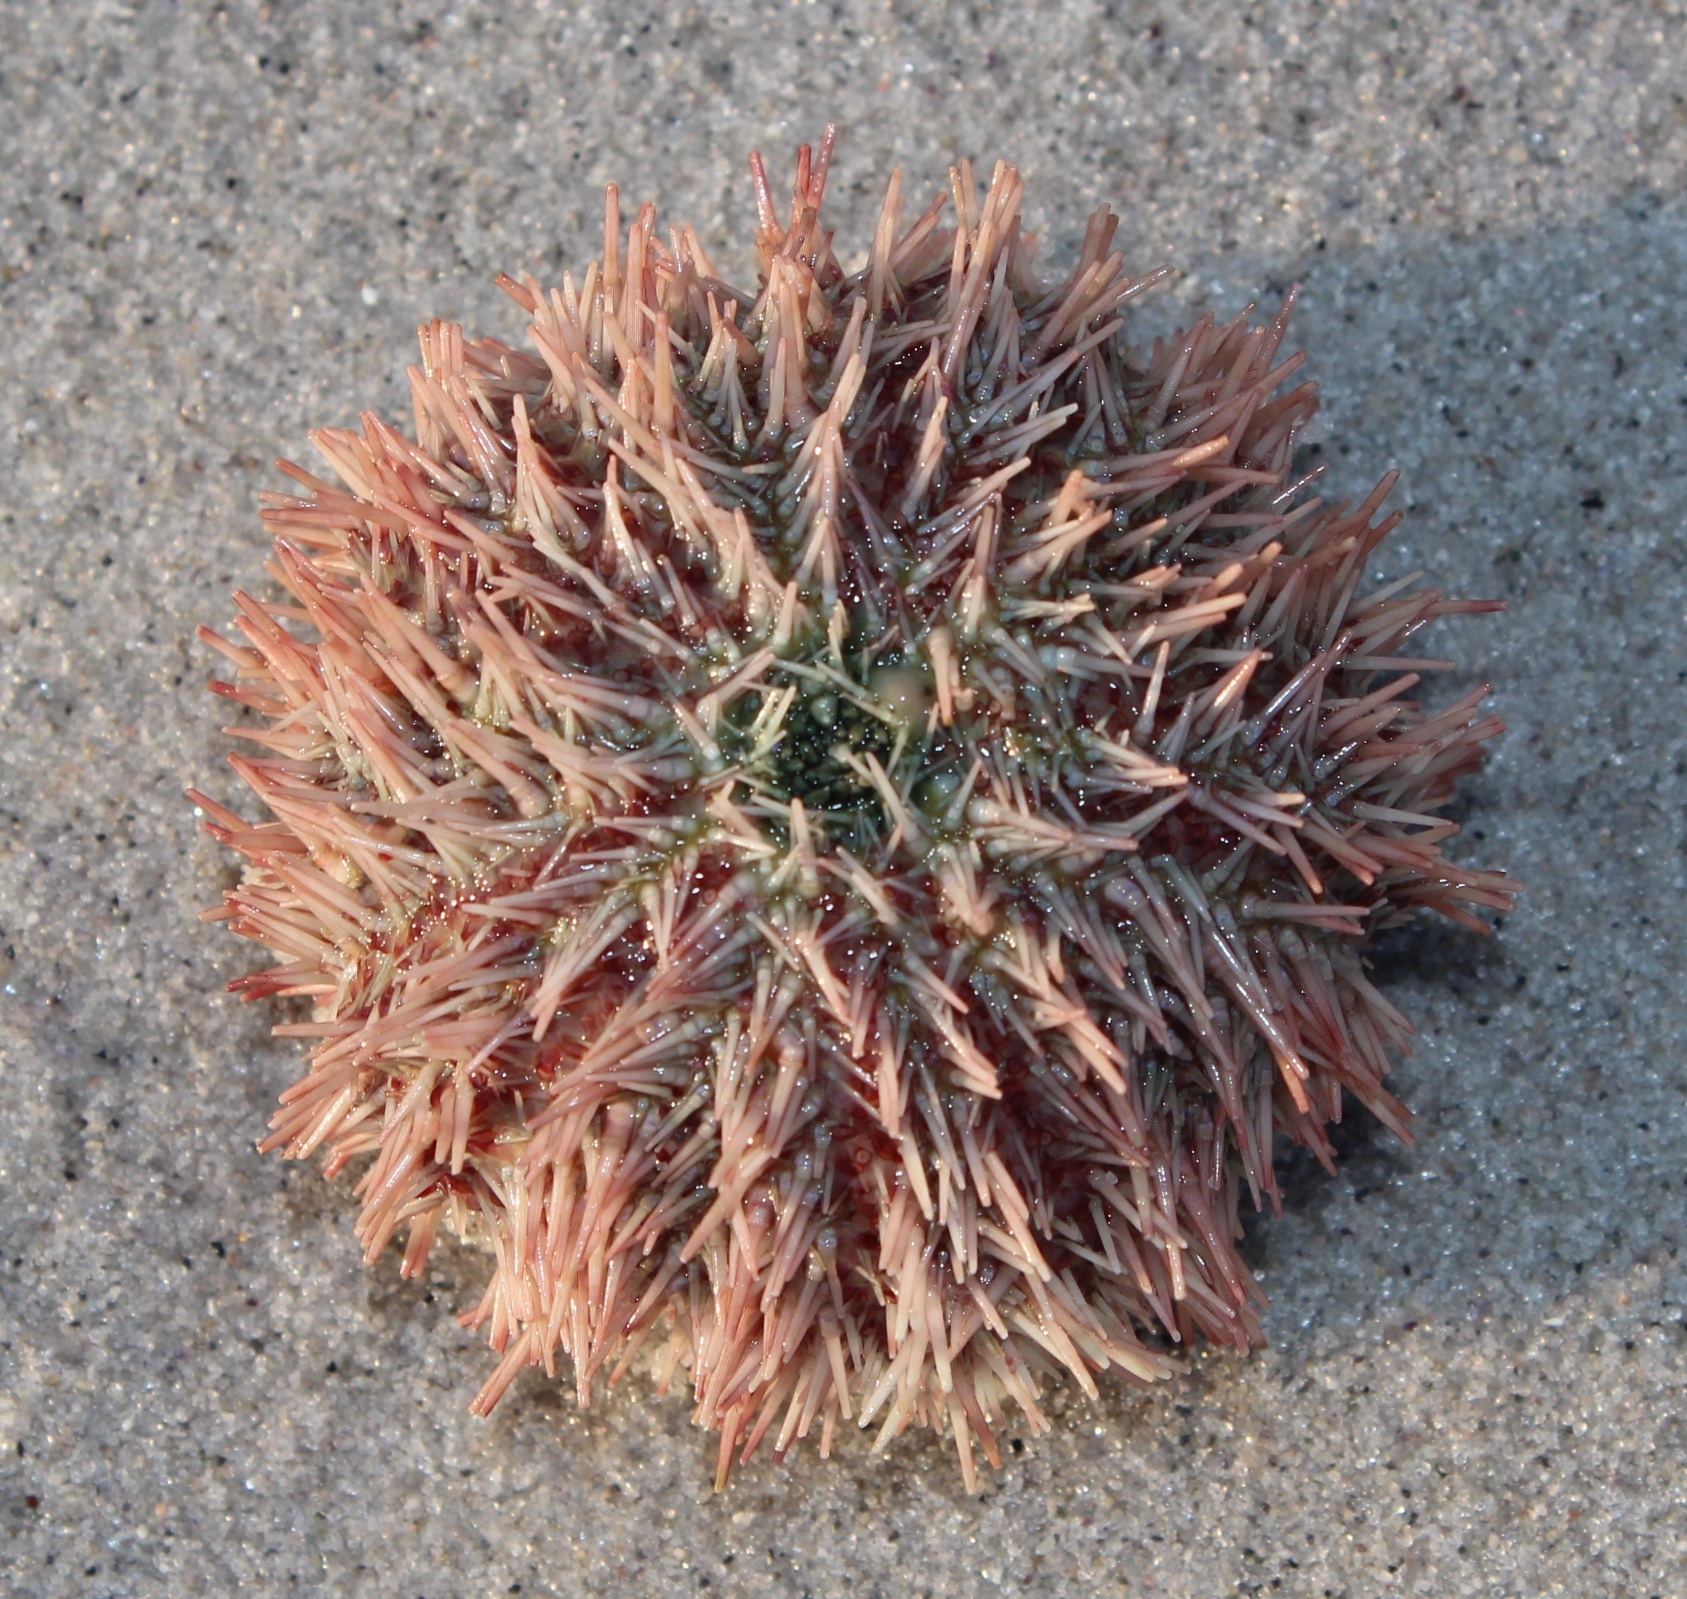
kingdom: Animalia
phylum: Echinodermata
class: Echinoidea
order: Camarodonta
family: Echinidae
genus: Echinus
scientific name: Echinus gilchristi
